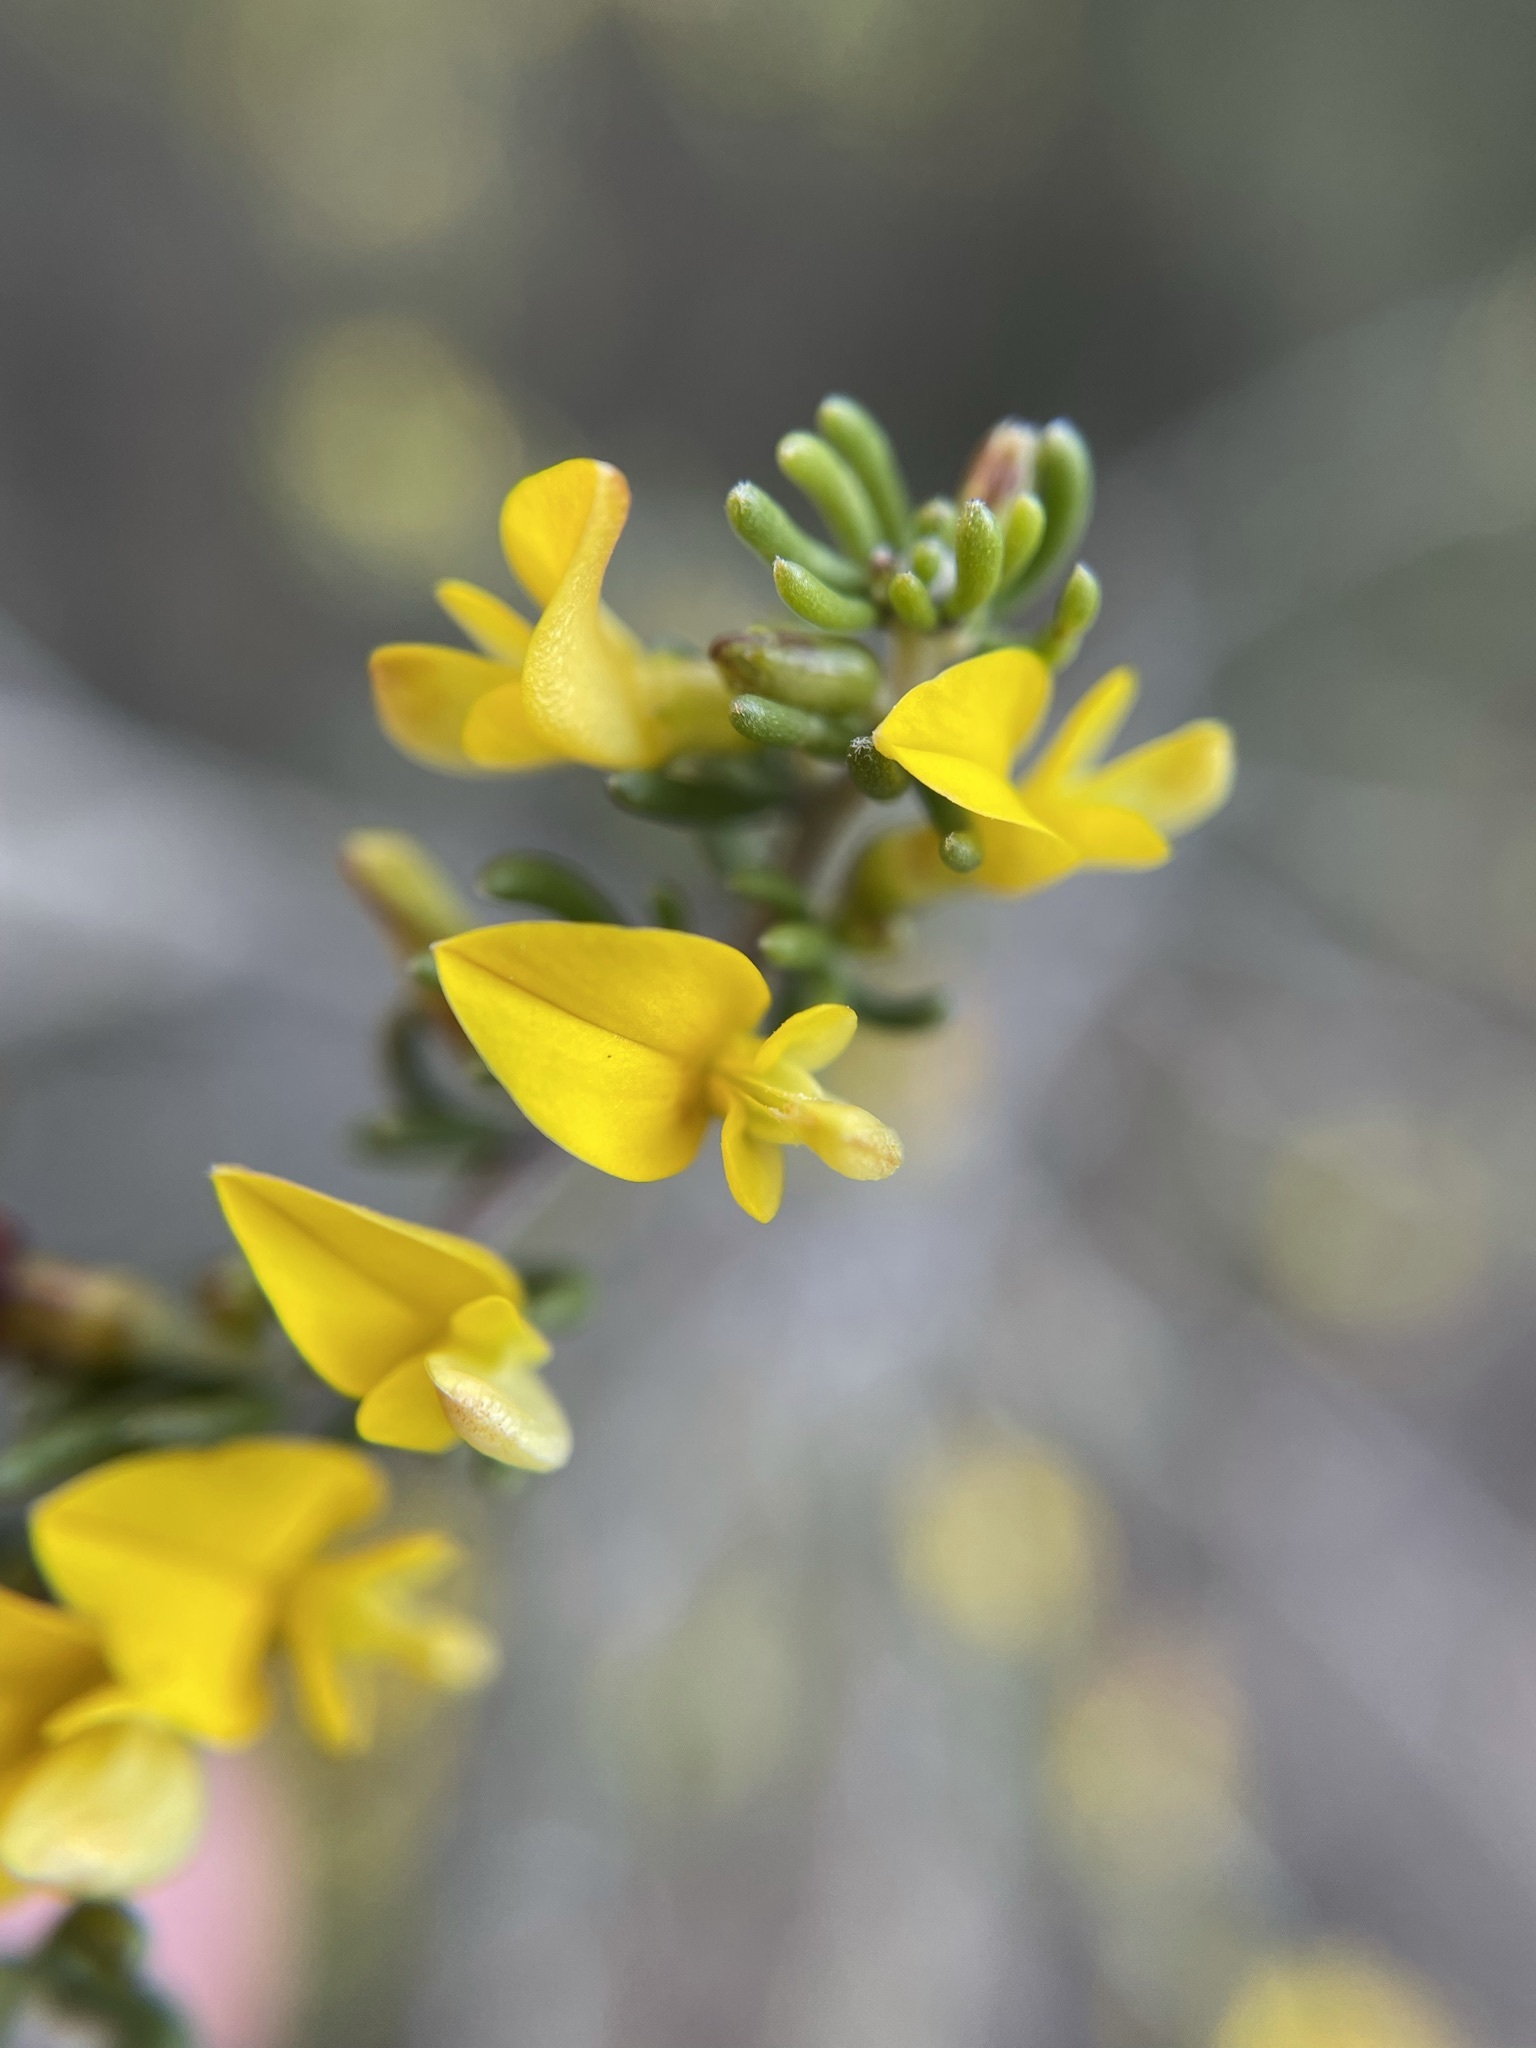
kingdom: Plantae
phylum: Tracheophyta
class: Magnoliopsida
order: Fabales
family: Fabaceae
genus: Aspalathus
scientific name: Aspalathus subtingens
